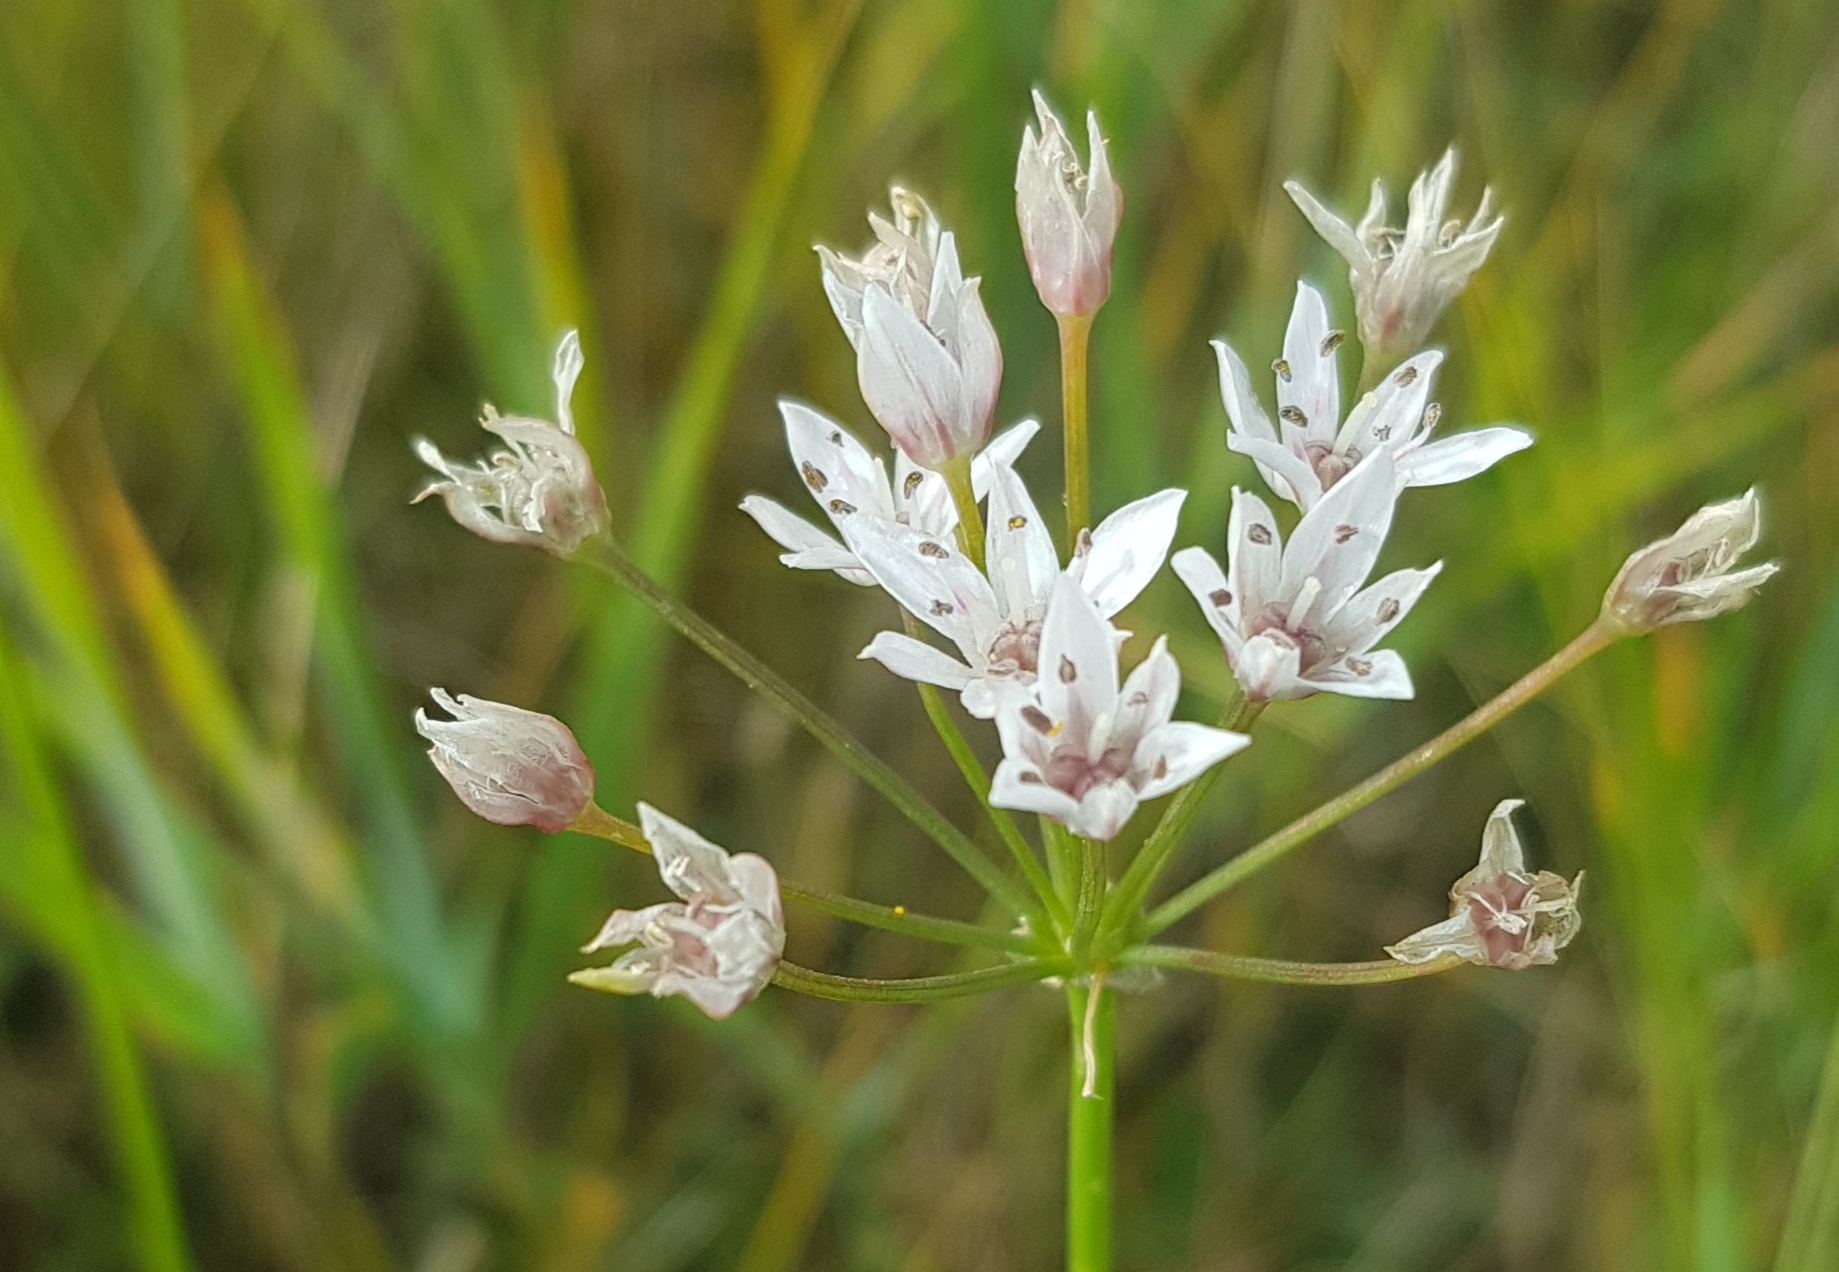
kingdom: Plantae
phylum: Tracheophyta
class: Liliopsida
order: Asparagales
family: Amaryllidaceae
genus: Allium
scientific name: Allium ramosum
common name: Fragrant garlic
